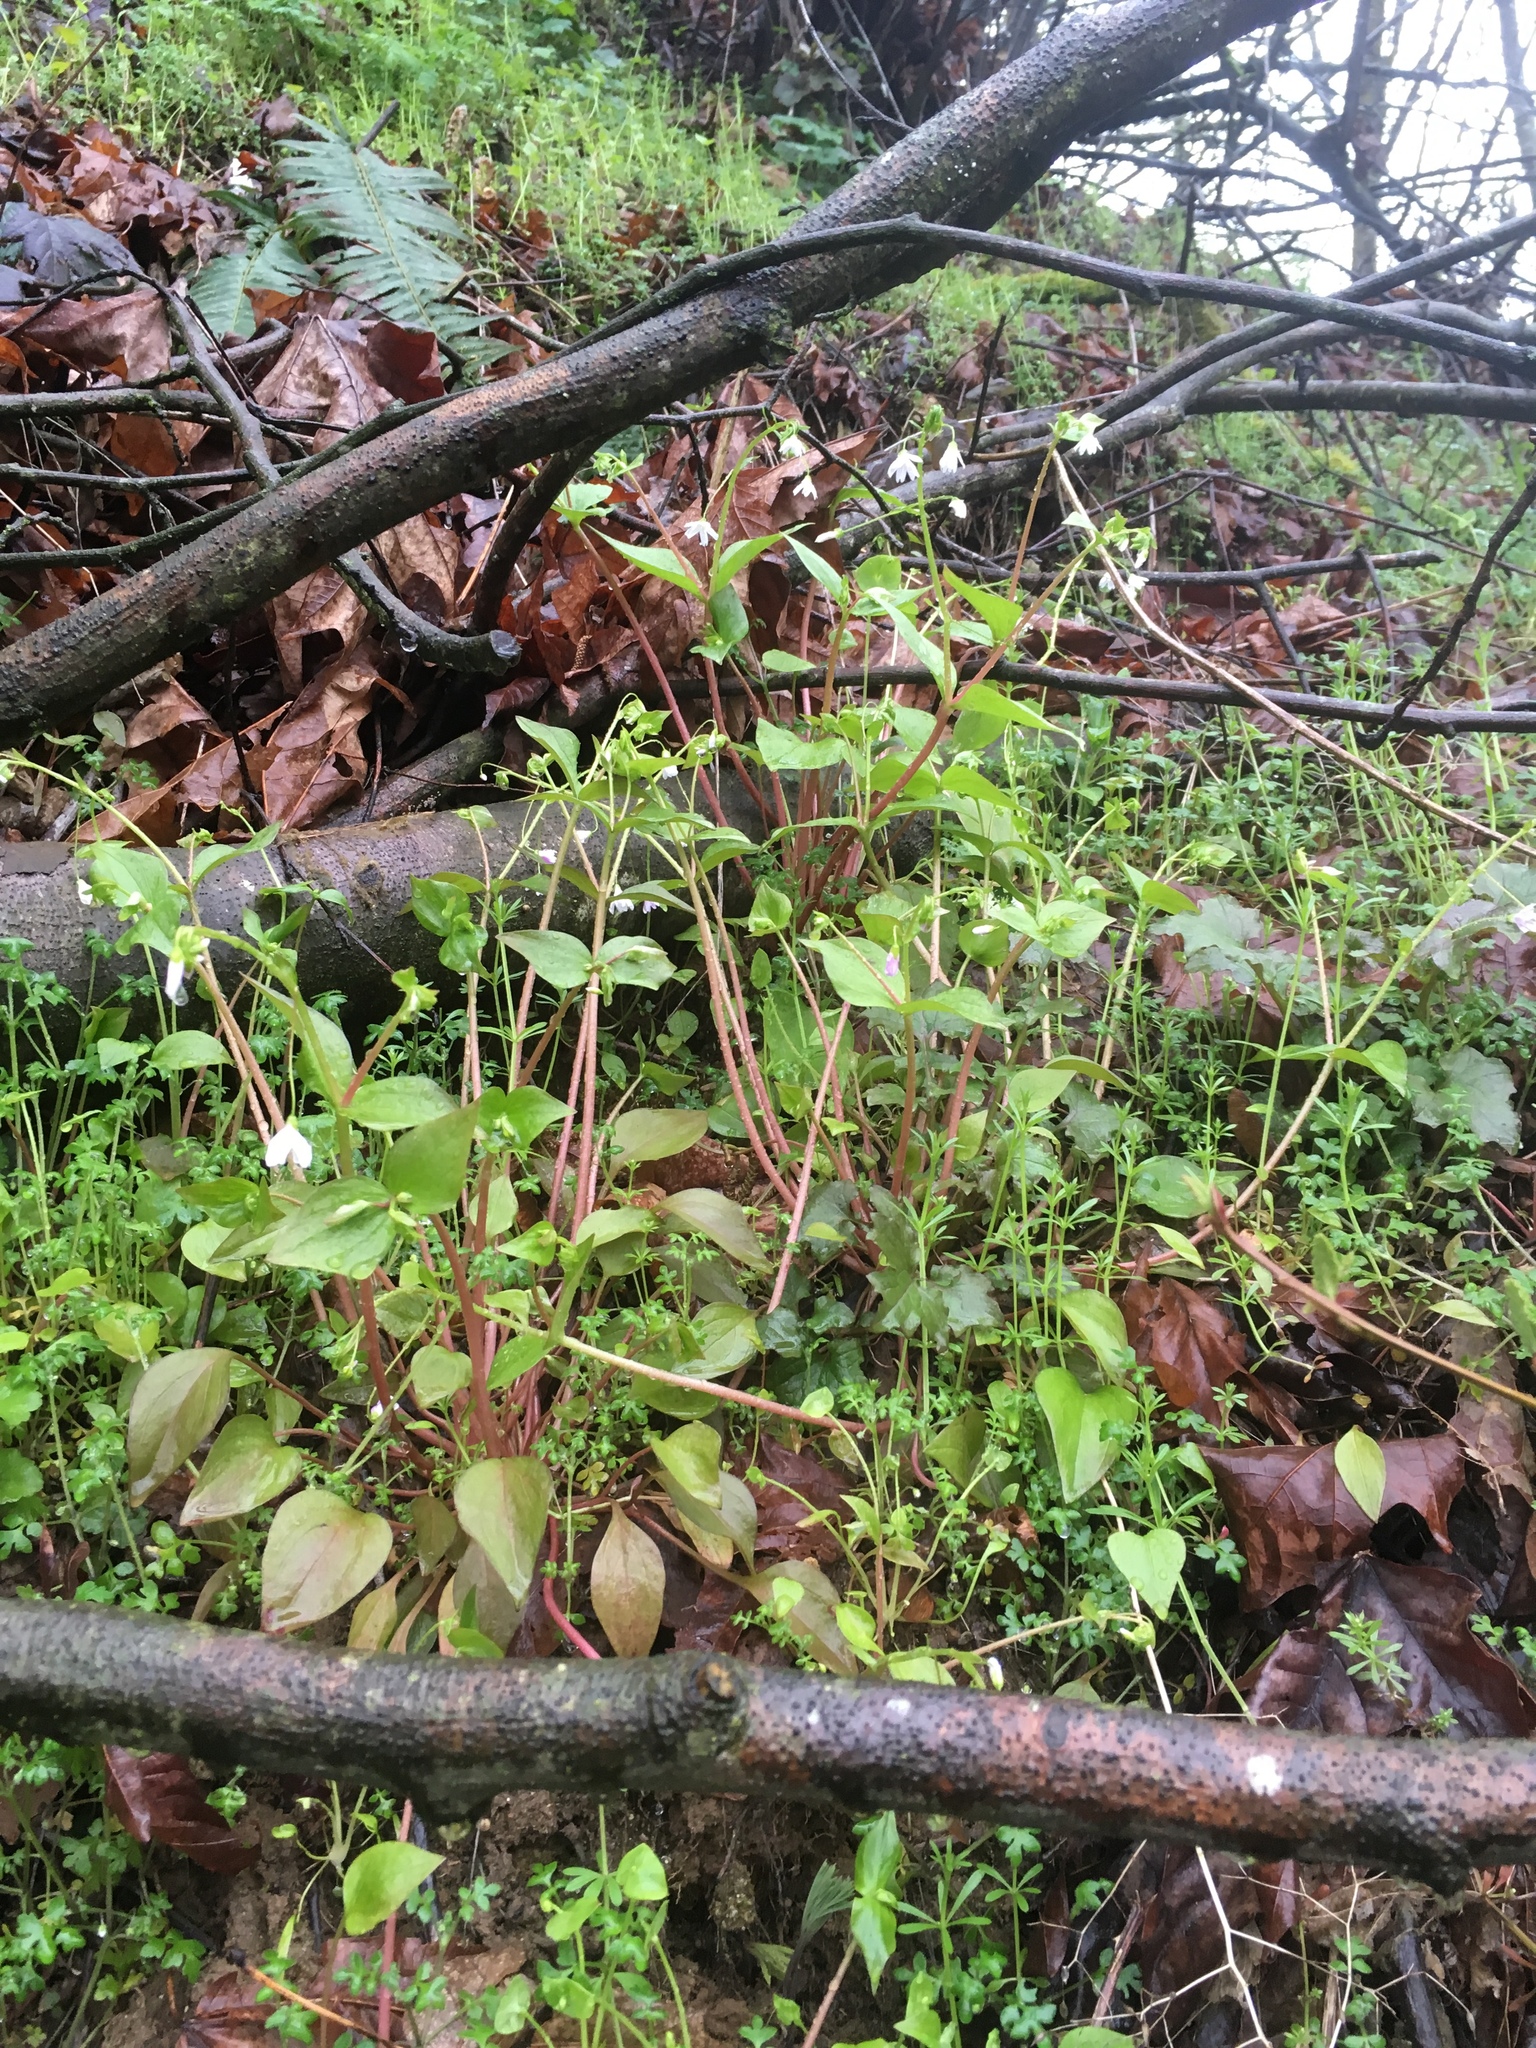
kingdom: Plantae
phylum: Tracheophyta
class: Magnoliopsida
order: Caryophyllales
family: Montiaceae
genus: Claytonia
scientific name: Claytonia sibirica
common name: Pink purslane
